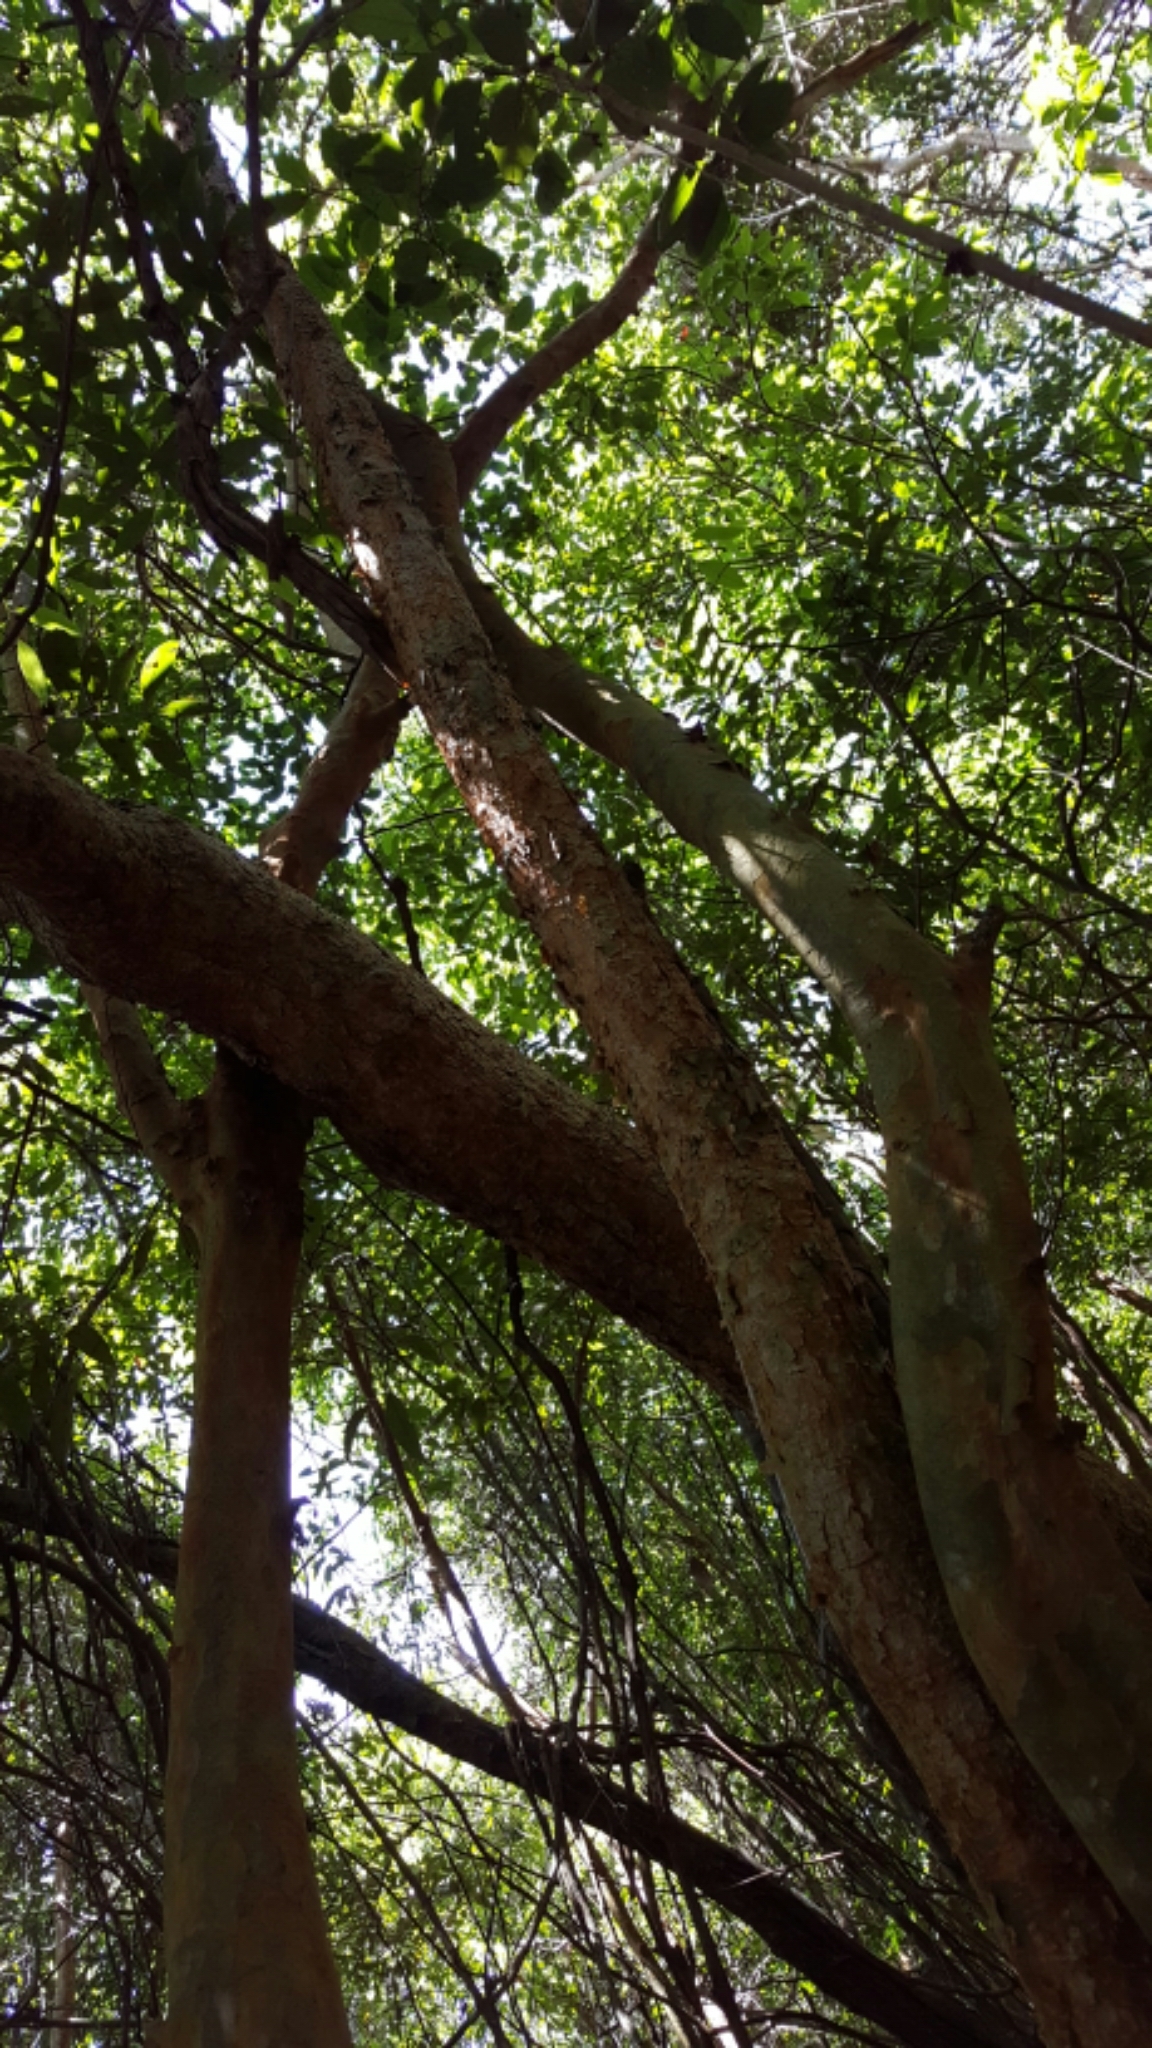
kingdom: Plantae
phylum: Tracheophyta
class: Magnoliopsida
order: Caryophyllales
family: Polygonaceae
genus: Coccoloba
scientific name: Coccoloba diversifolia
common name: Pigeon-plum
